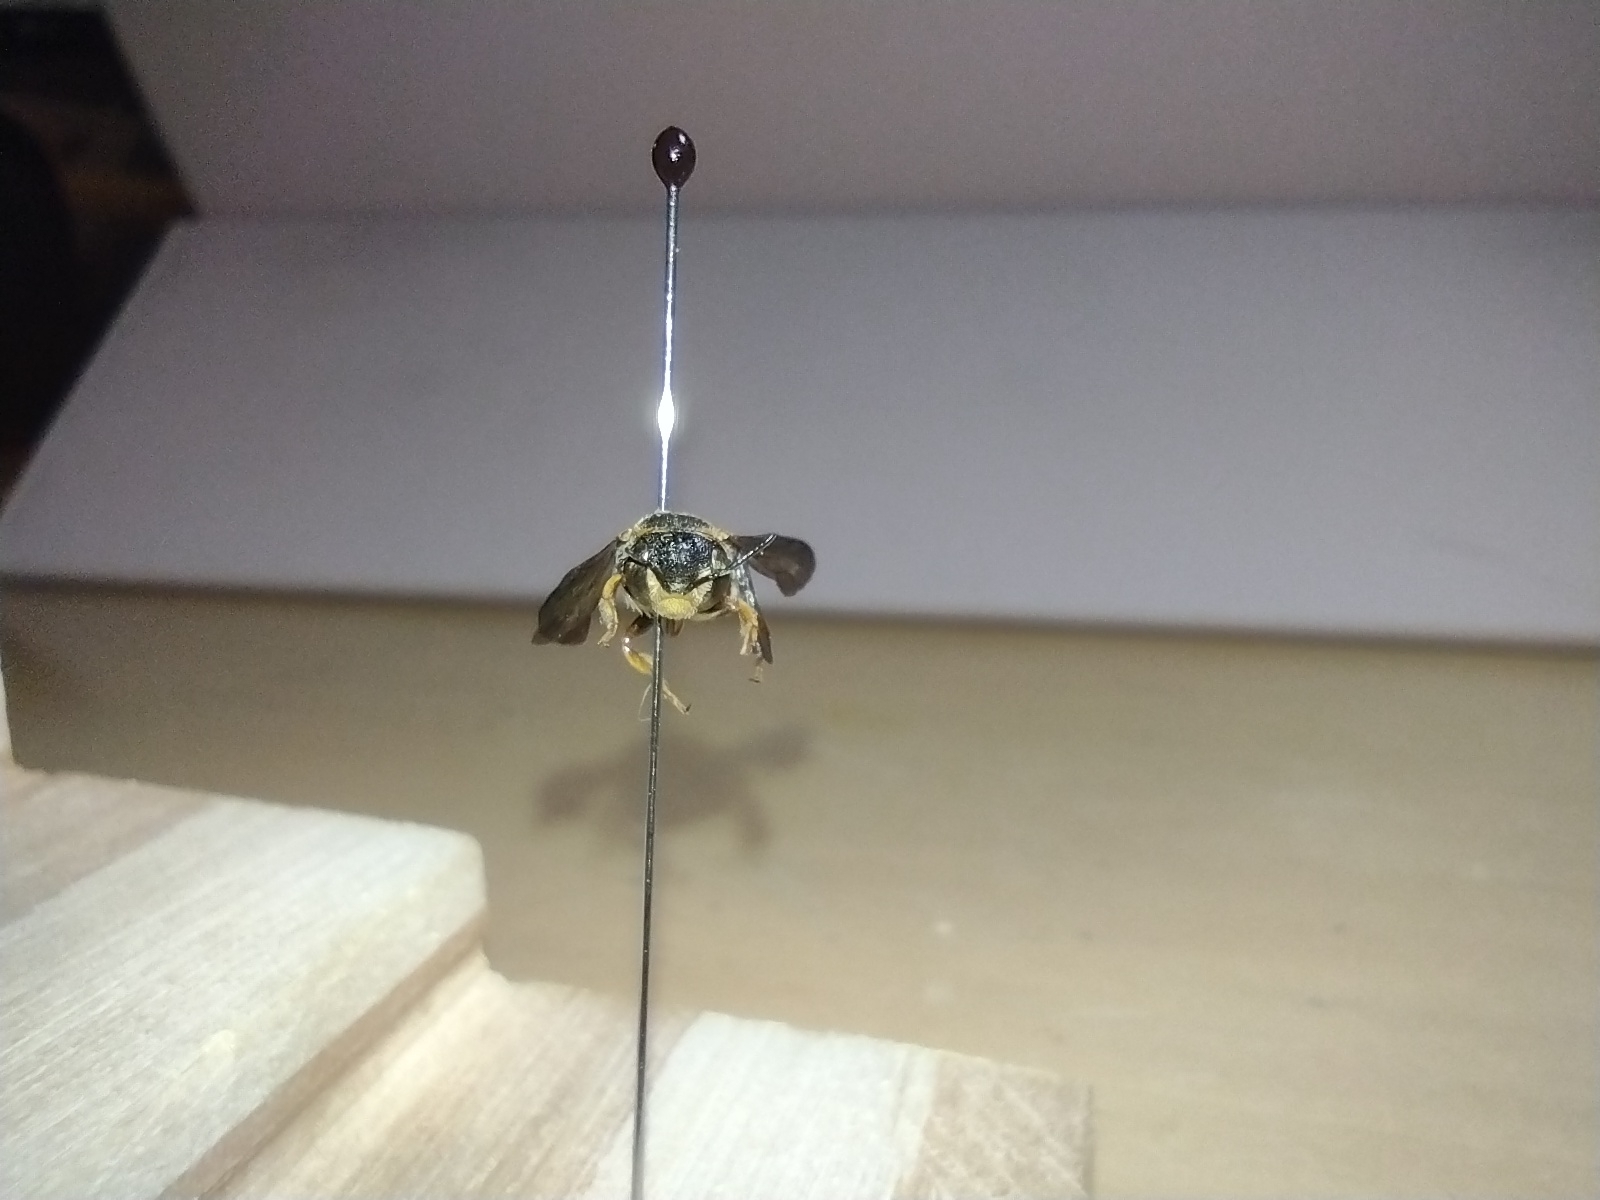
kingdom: Animalia
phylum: Arthropoda
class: Insecta
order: Hymenoptera
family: Megachilidae
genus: Anthidiellum
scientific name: Anthidiellum notatum
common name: Northern rotund-resin bee
